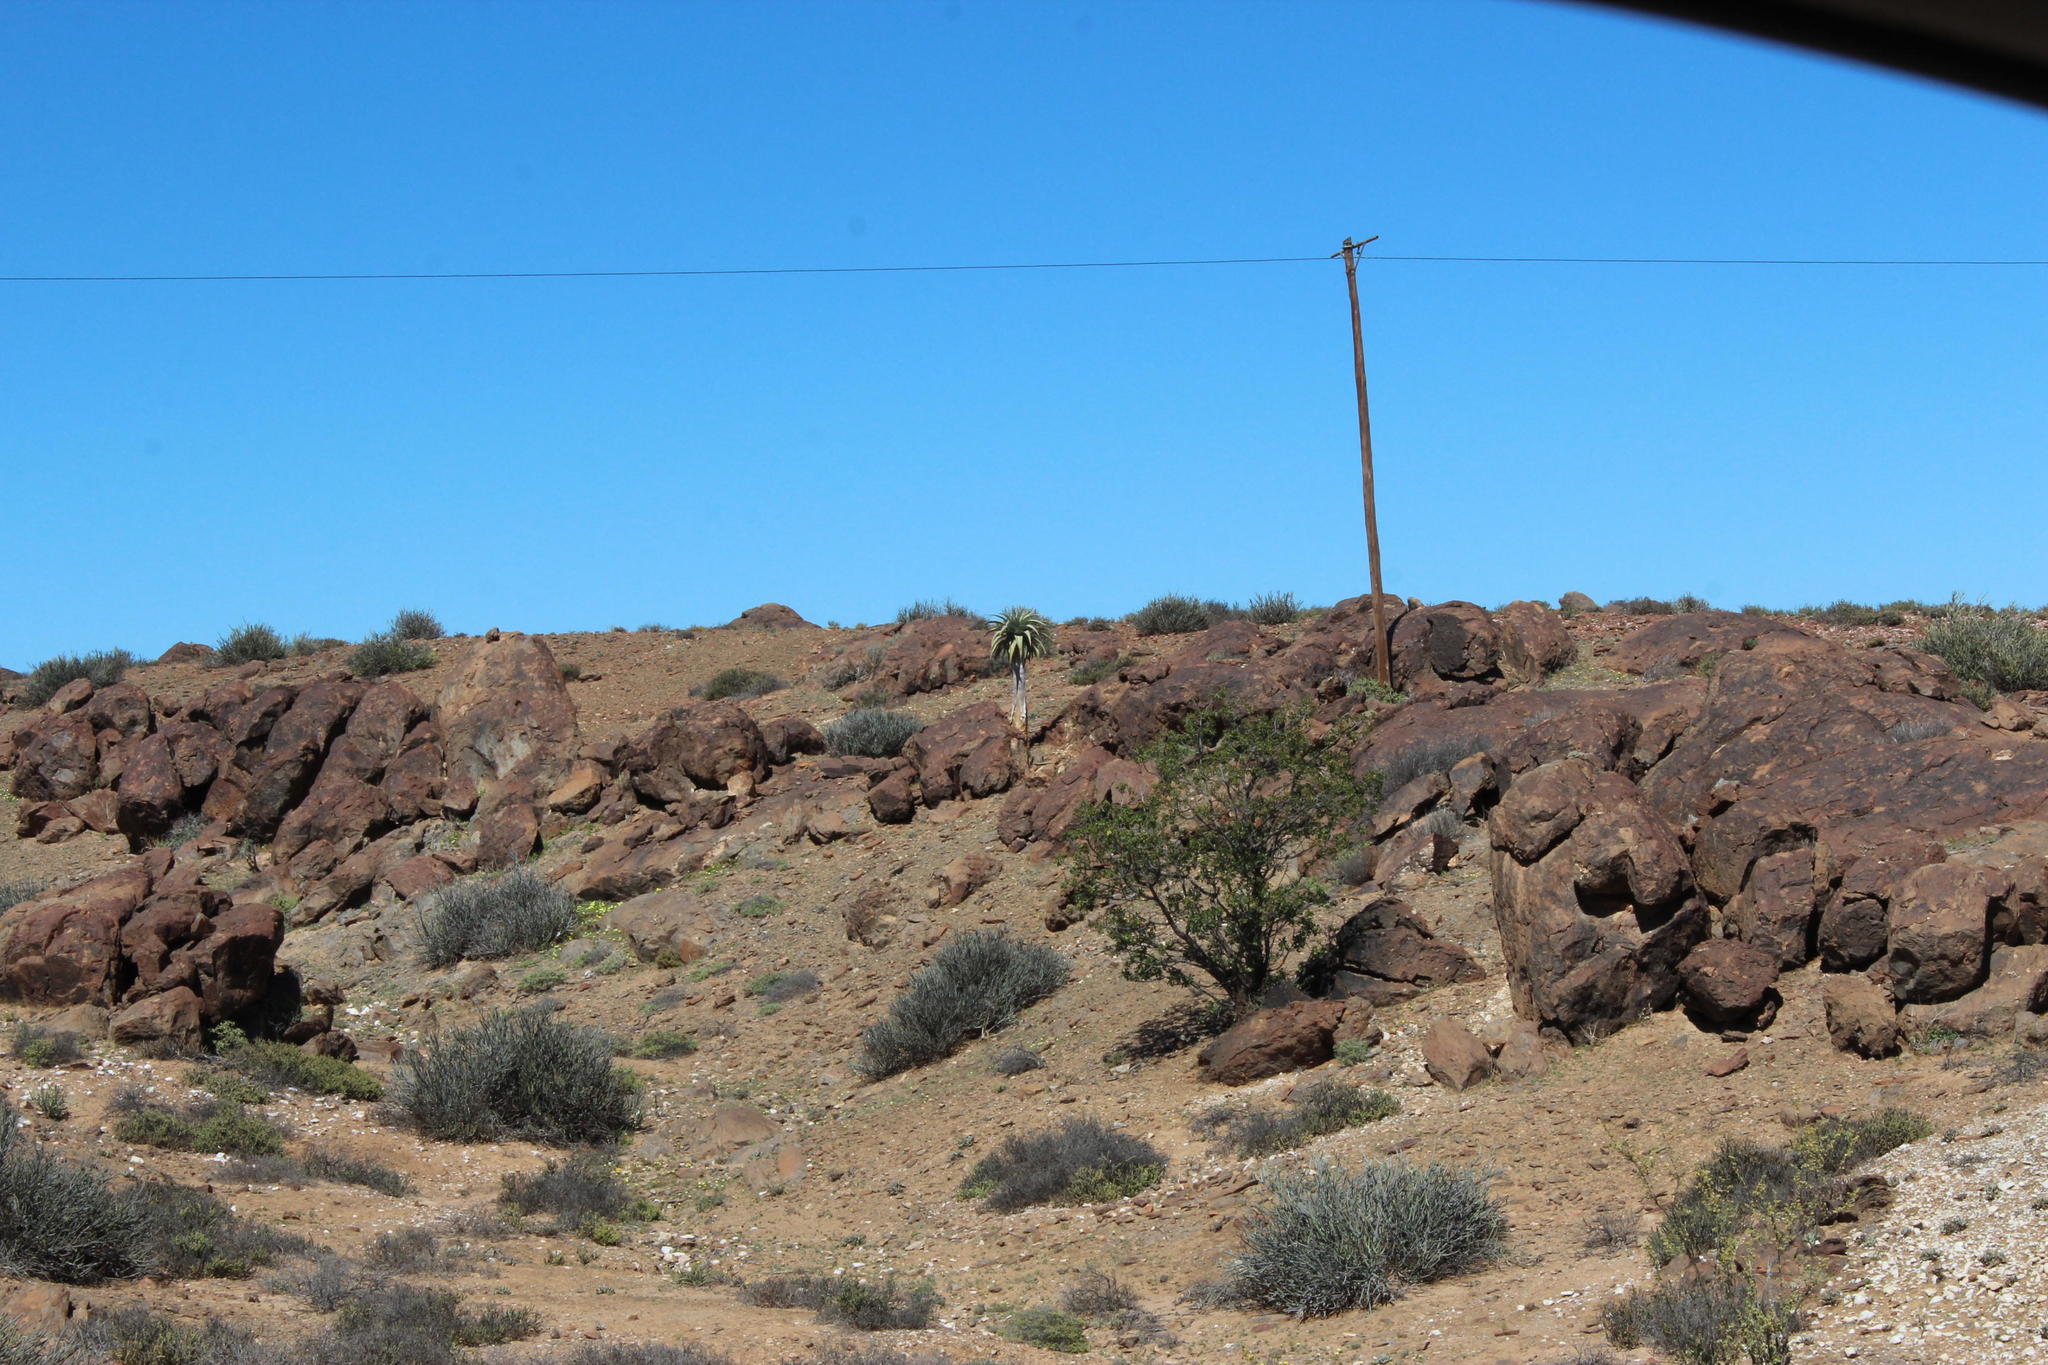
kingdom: Plantae
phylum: Tracheophyta
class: Liliopsida
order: Asparagales
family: Asphodelaceae
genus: Aloidendron
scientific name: Aloidendron pillansii
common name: Bastard quiver tree
